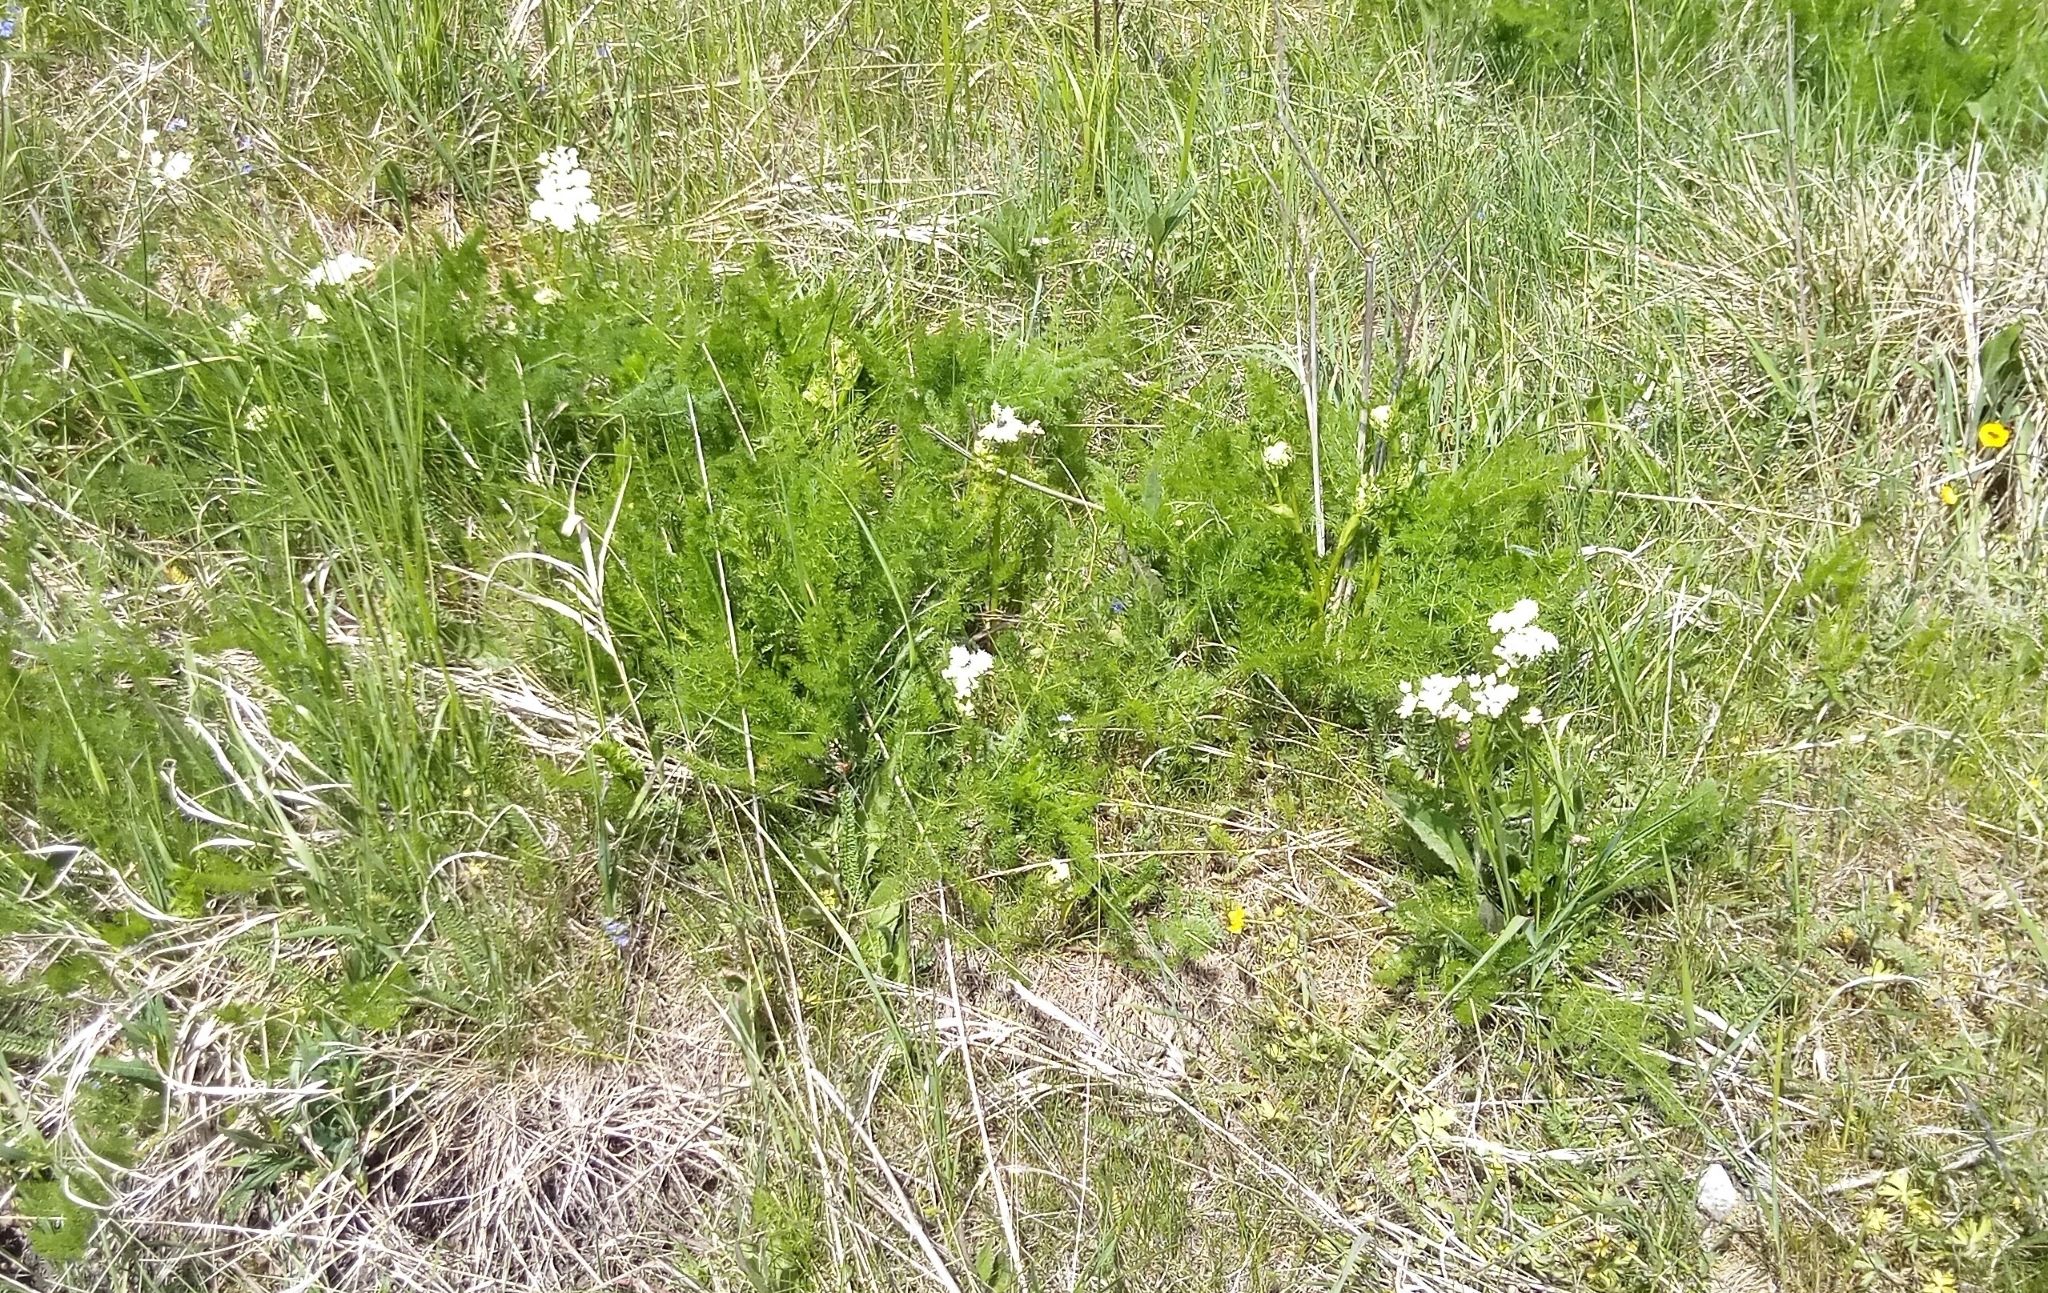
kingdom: Plantae
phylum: Tracheophyta
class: Magnoliopsida
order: Apiales
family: Apiaceae
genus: Meum
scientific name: Meum athamanticum
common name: Spignel
